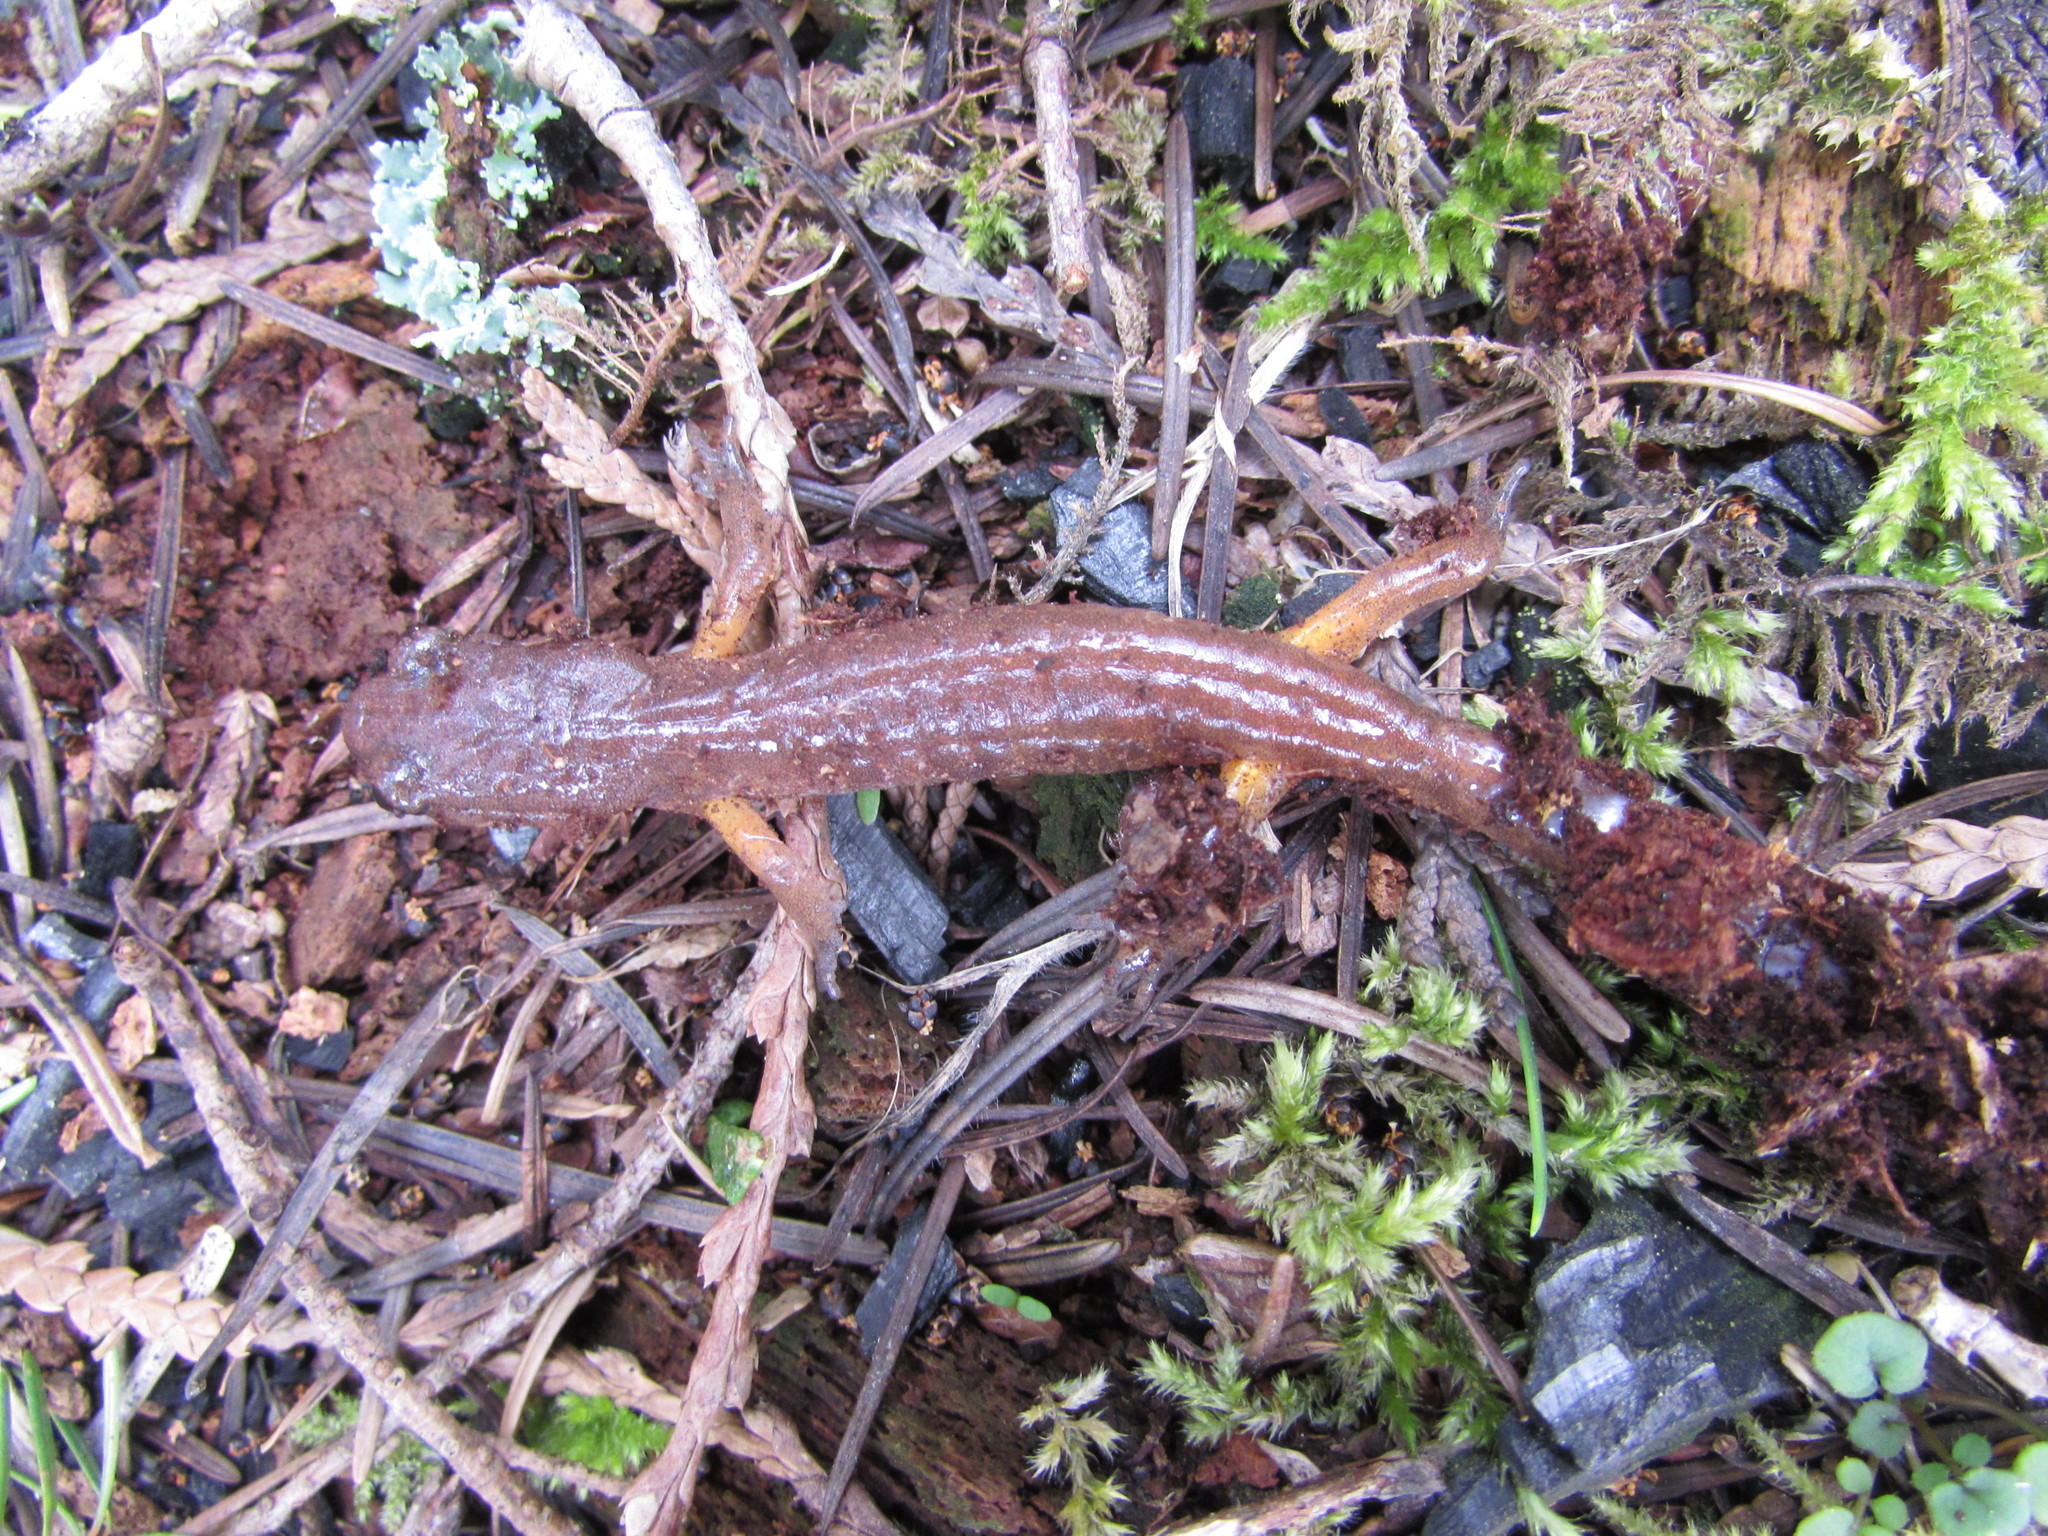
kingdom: Animalia
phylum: Chordata
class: Amphibia
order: Caudata
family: Plethodontidae
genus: Ensatina
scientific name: Ensatina eschscholtzii
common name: Ensatina
